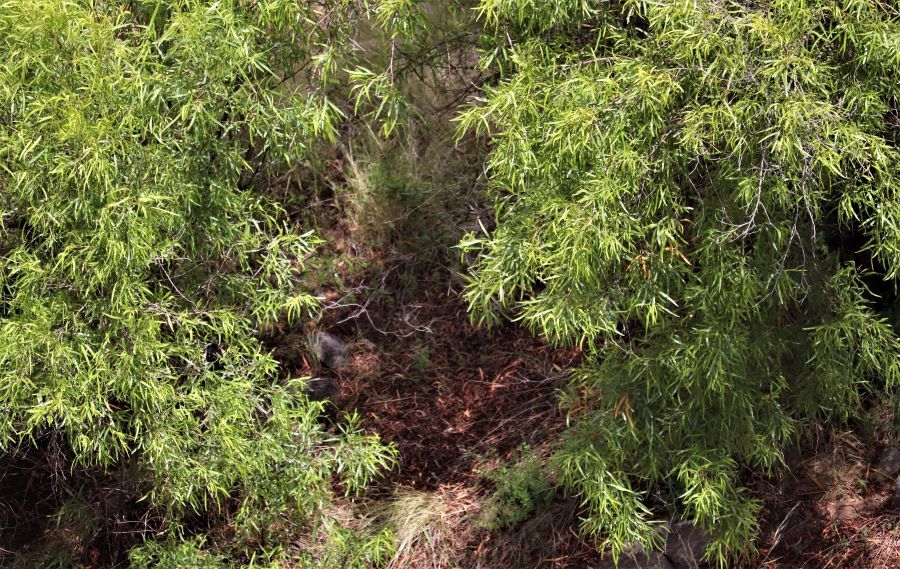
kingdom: Plantae
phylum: Tracheophyta
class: Magnoliopsida
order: Sapindales
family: Anacardiaceae
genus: Searsia
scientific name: Searsia lancea
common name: Cashew
